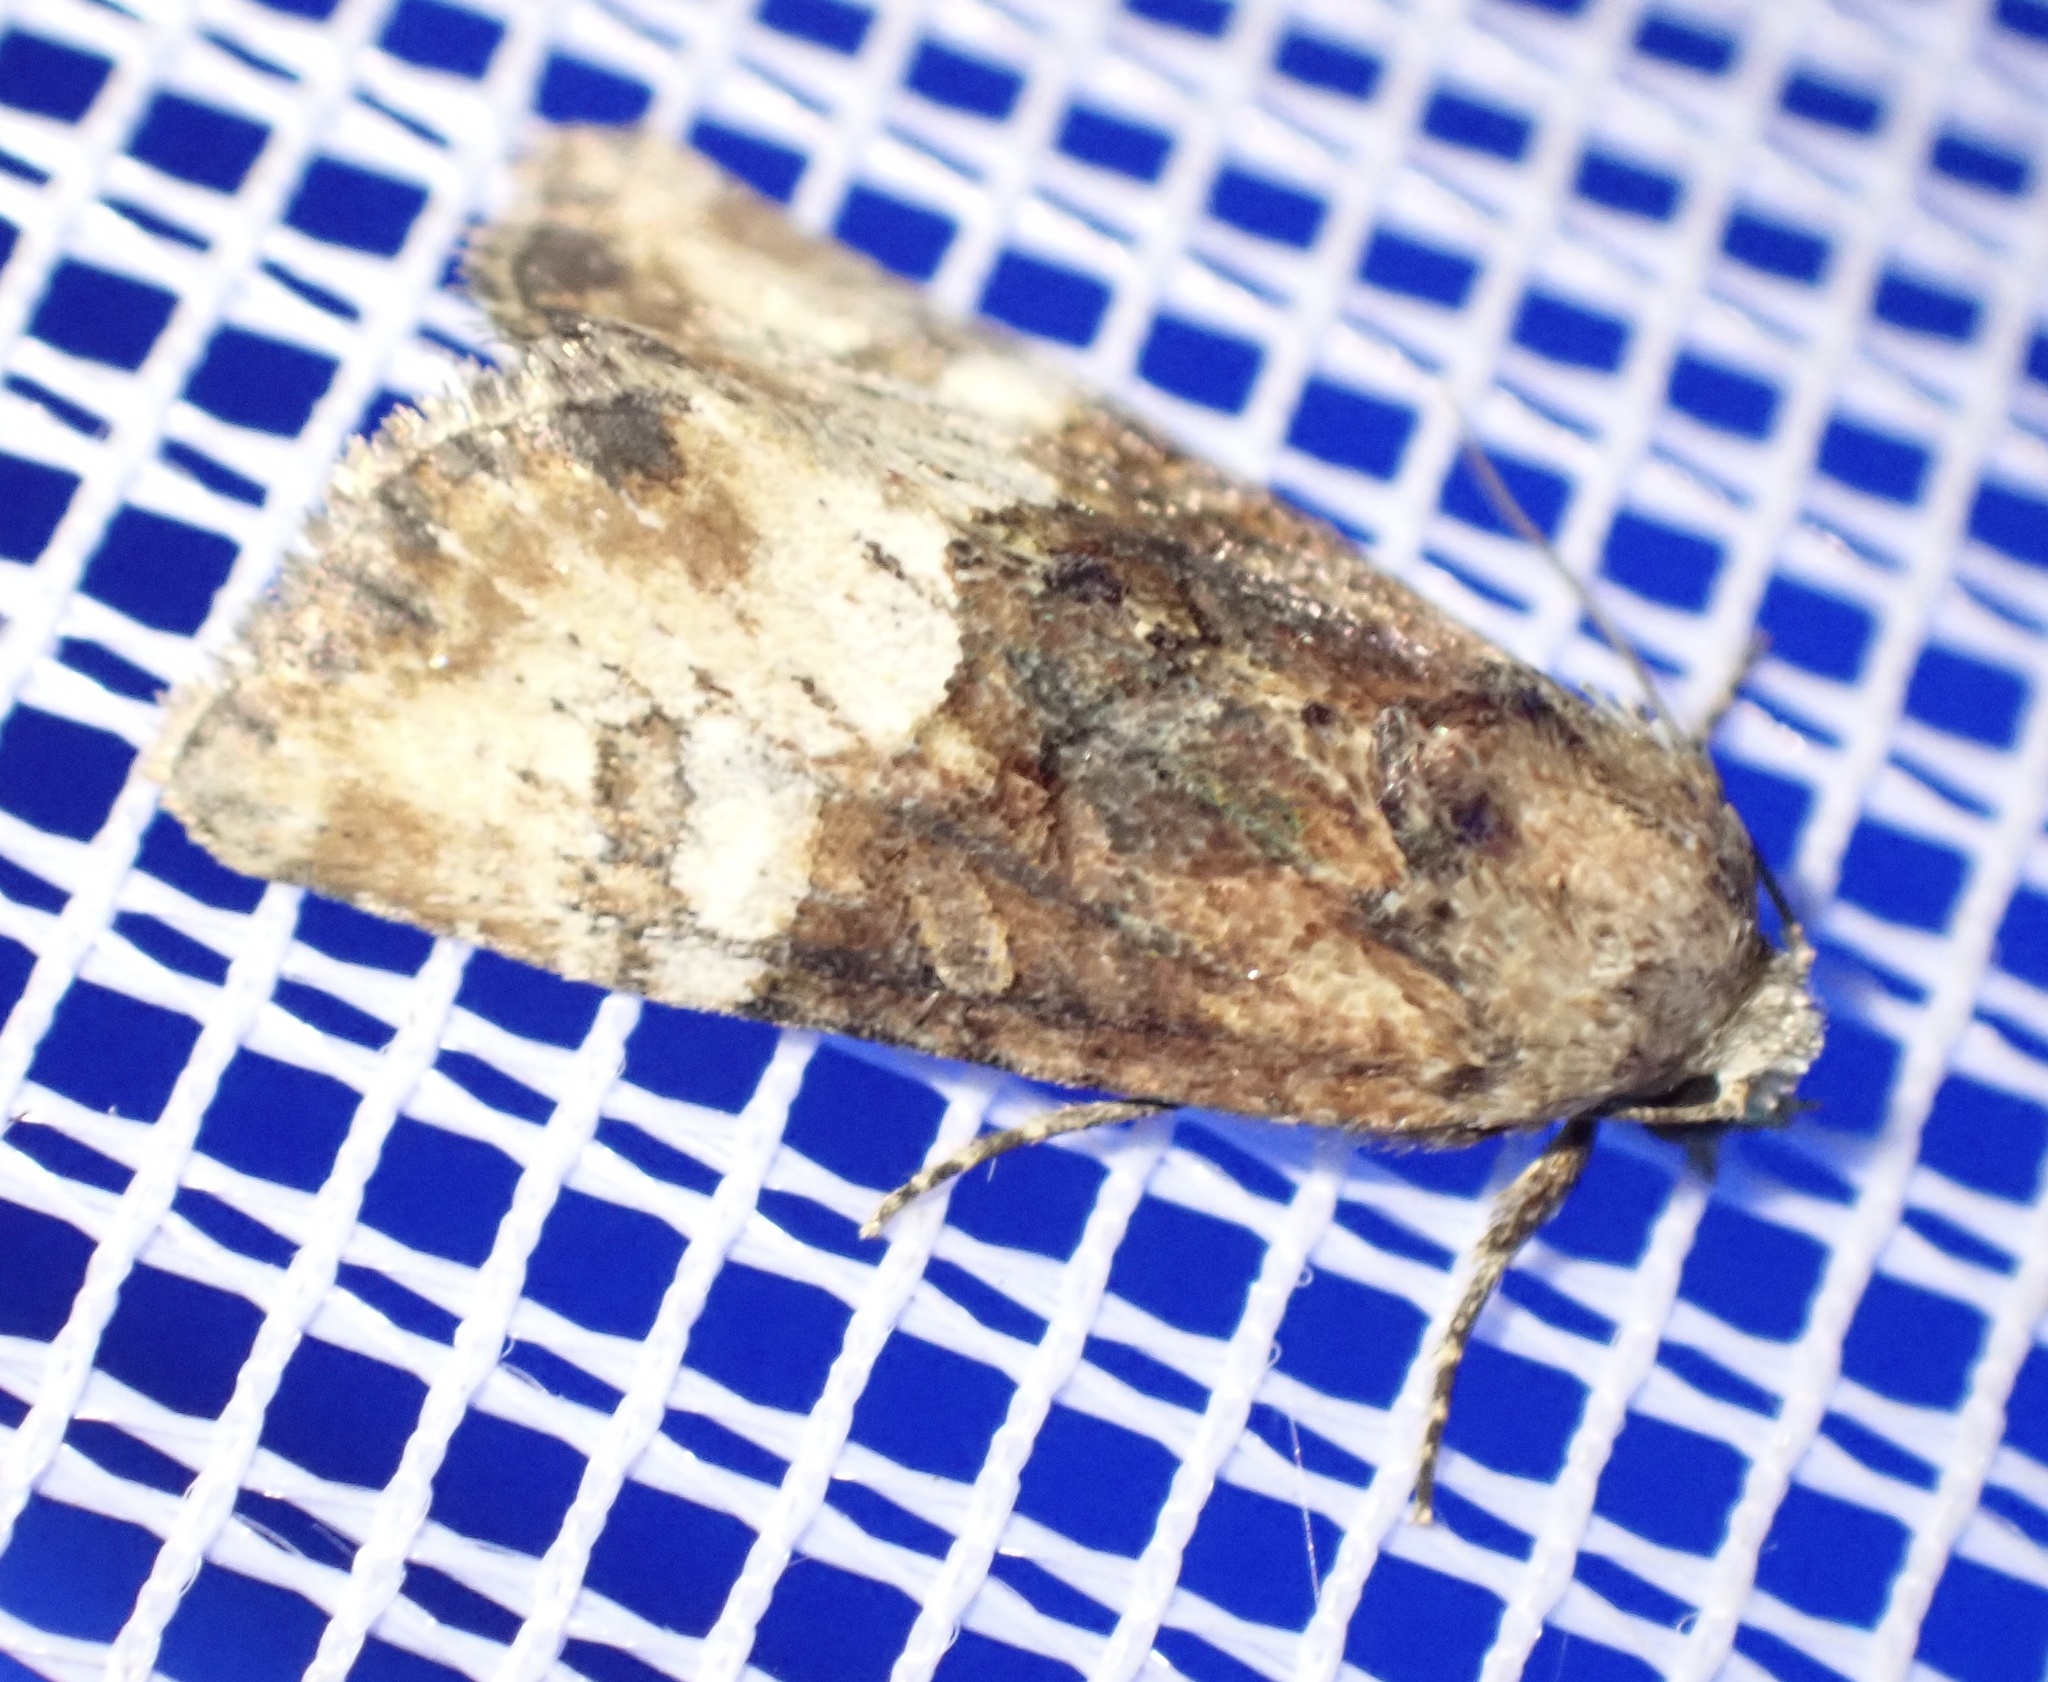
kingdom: Animalia
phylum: Arthropoda
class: Insecta
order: Lepidoptera
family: Noctuidae
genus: Mesoligia
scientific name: Mesoligia furuncula
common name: Cloaked minor
